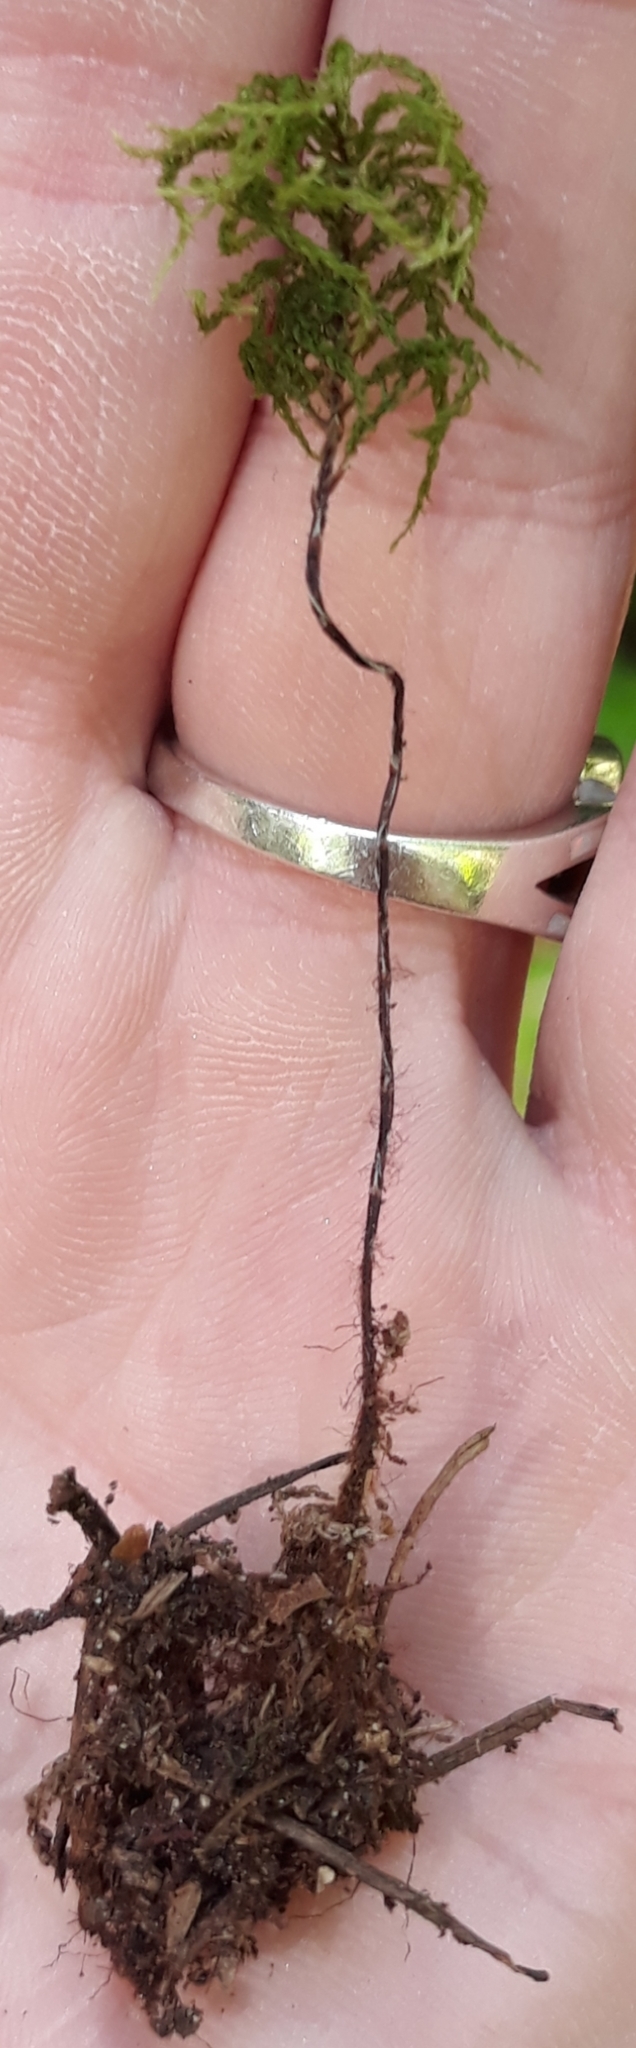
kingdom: Plantae
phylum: Bryophyta
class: Bryopsida
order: Bryales
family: Mniaceae
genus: Leucolepis
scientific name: Leucolepis acanthoneura
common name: Leucolepis umbrella moss
